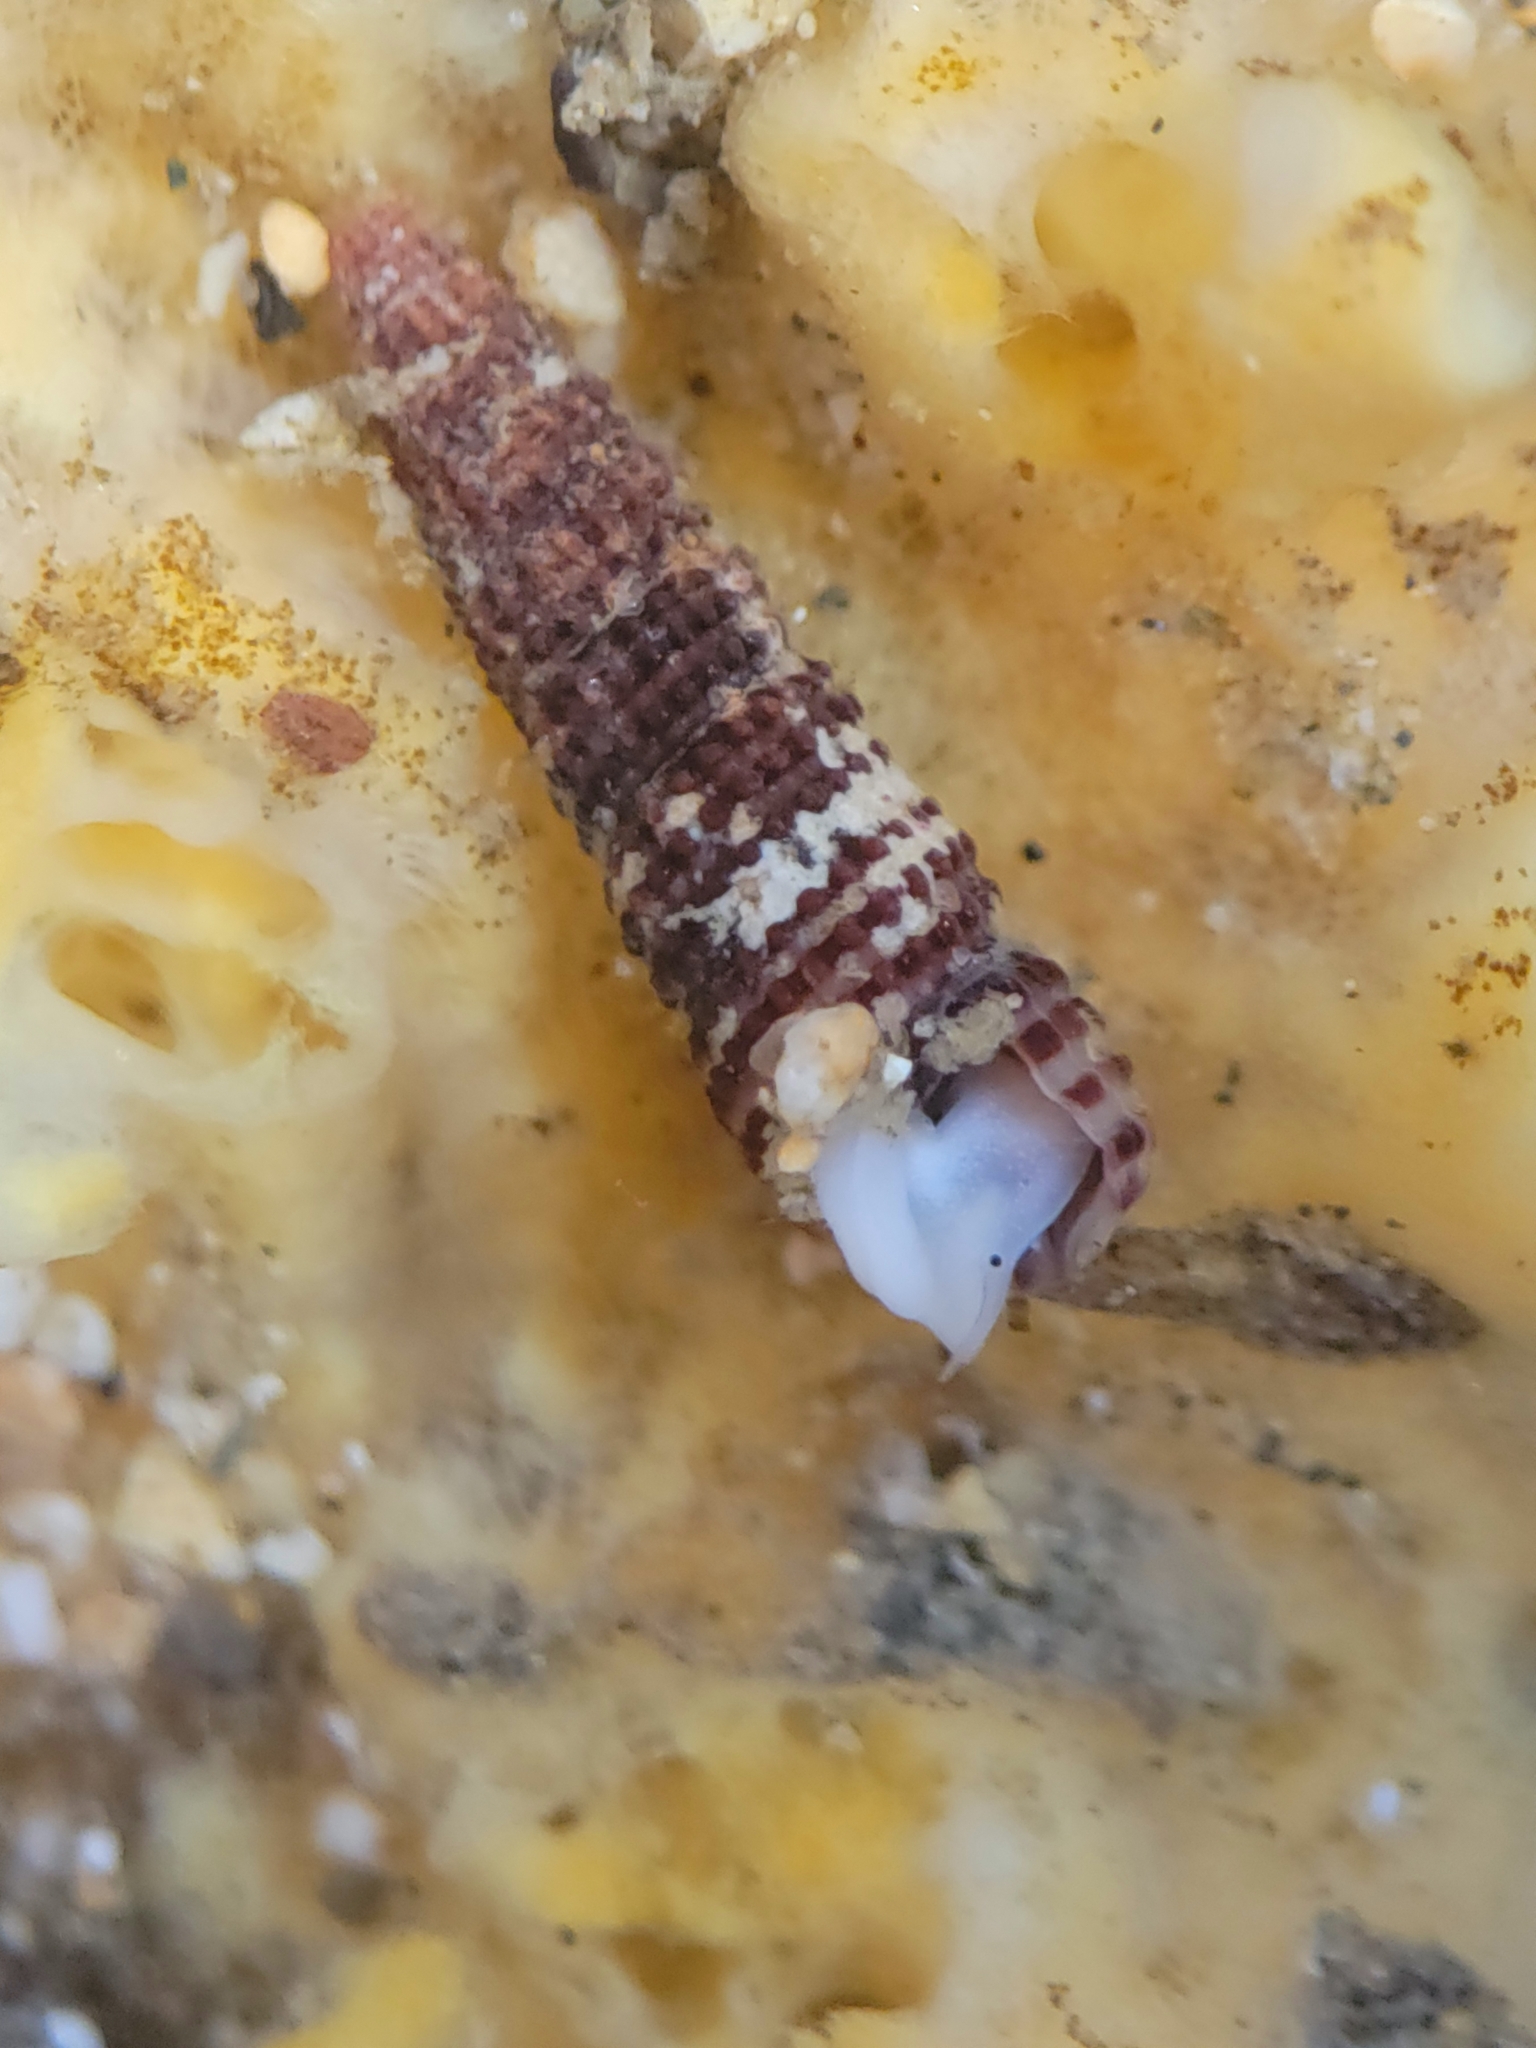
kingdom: Animalia
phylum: Mollusca
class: Gastropoda
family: Cerithiidae
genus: Lirobittium
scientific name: Lirobittium purpureum
